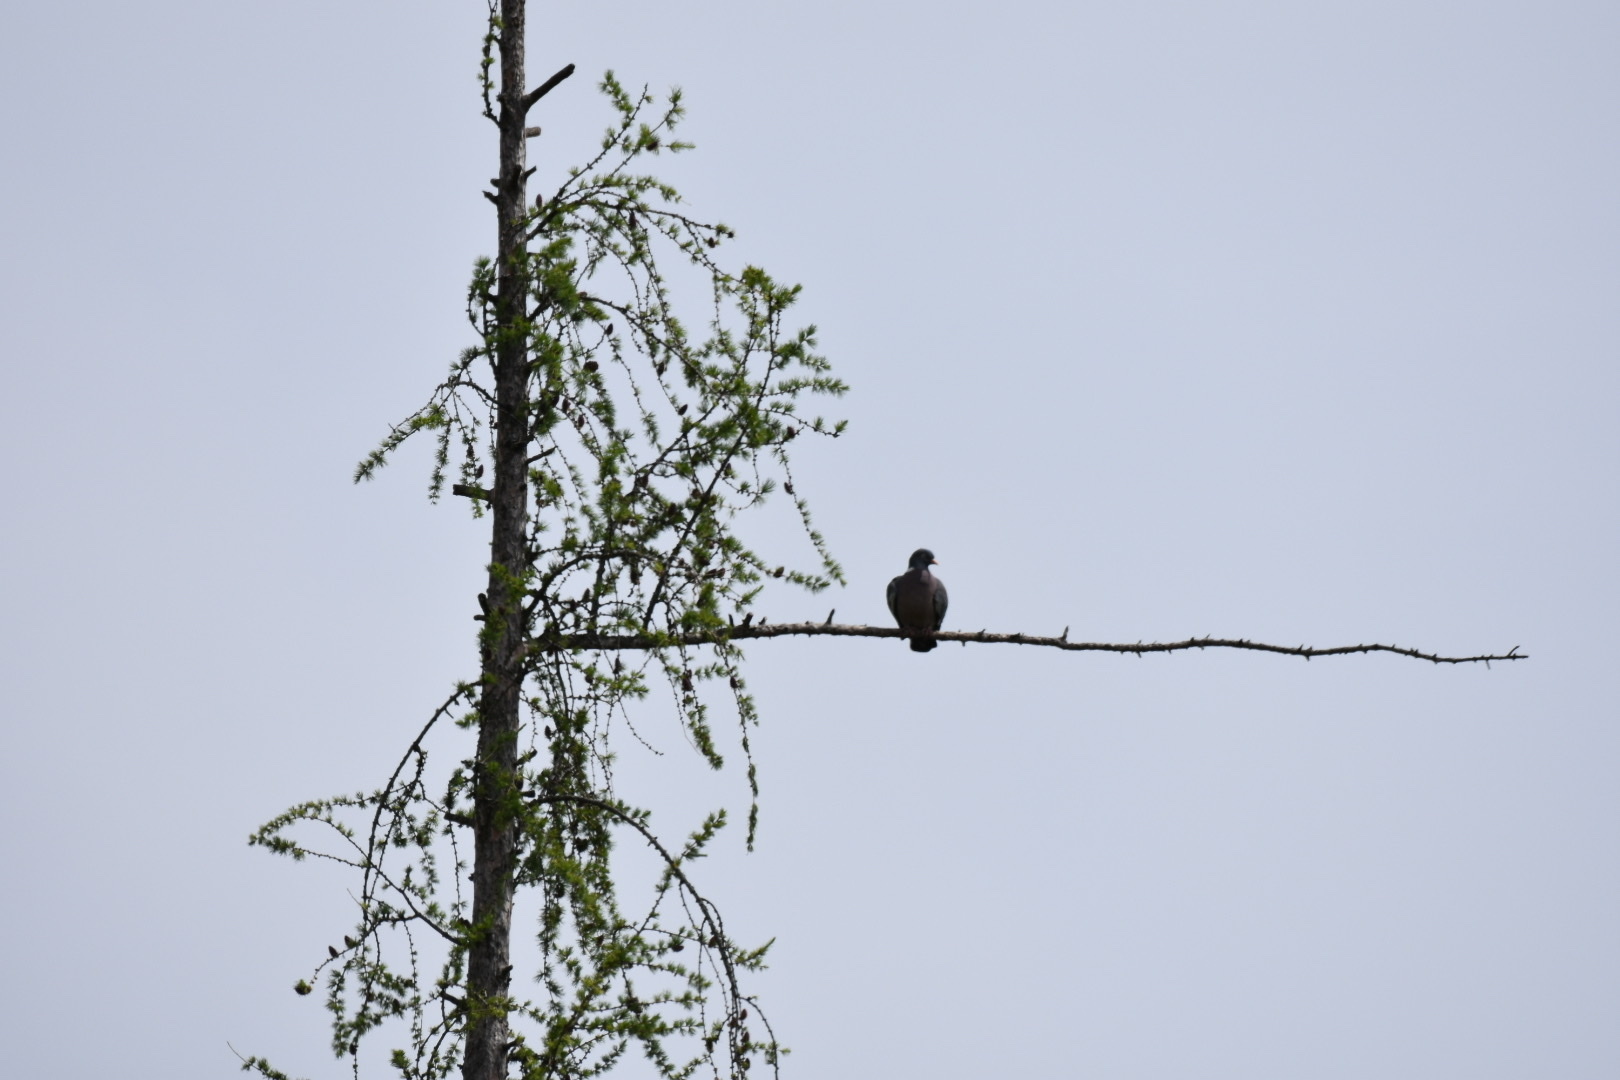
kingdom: Animalia
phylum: Chordata
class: Aves
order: Columbiformes
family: Columbidae
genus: Columba
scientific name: Columba palumbus
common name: Common wood pigeon
